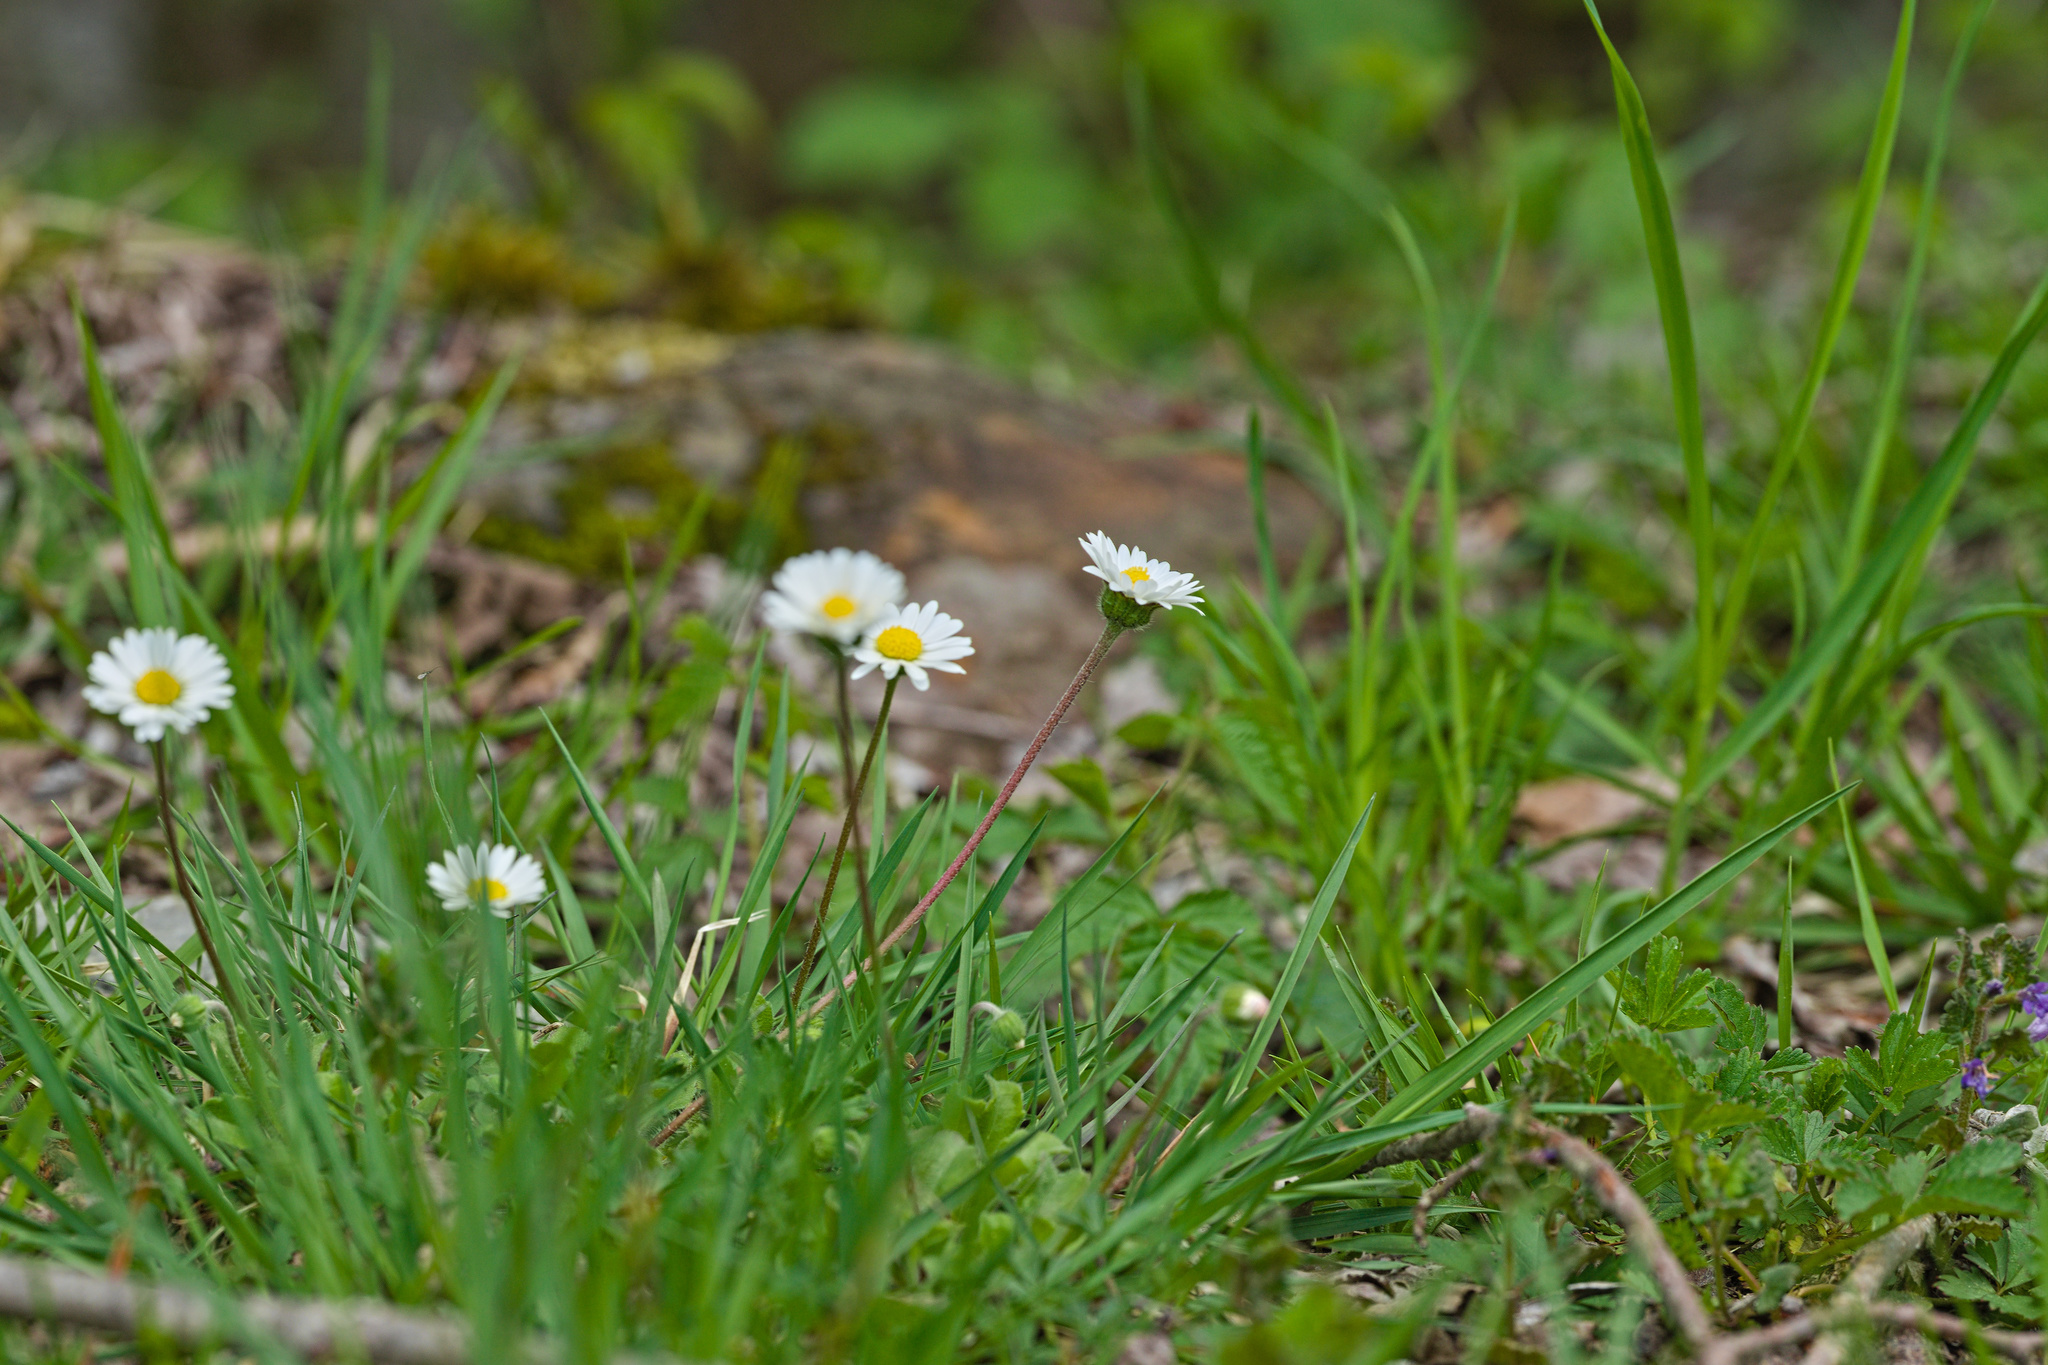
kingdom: Plantae
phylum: Tracheophyta
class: Magnoliopsida
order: Asterales
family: Asteraceae
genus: Bellis
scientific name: Bellis perennis
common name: Lawndaisy
